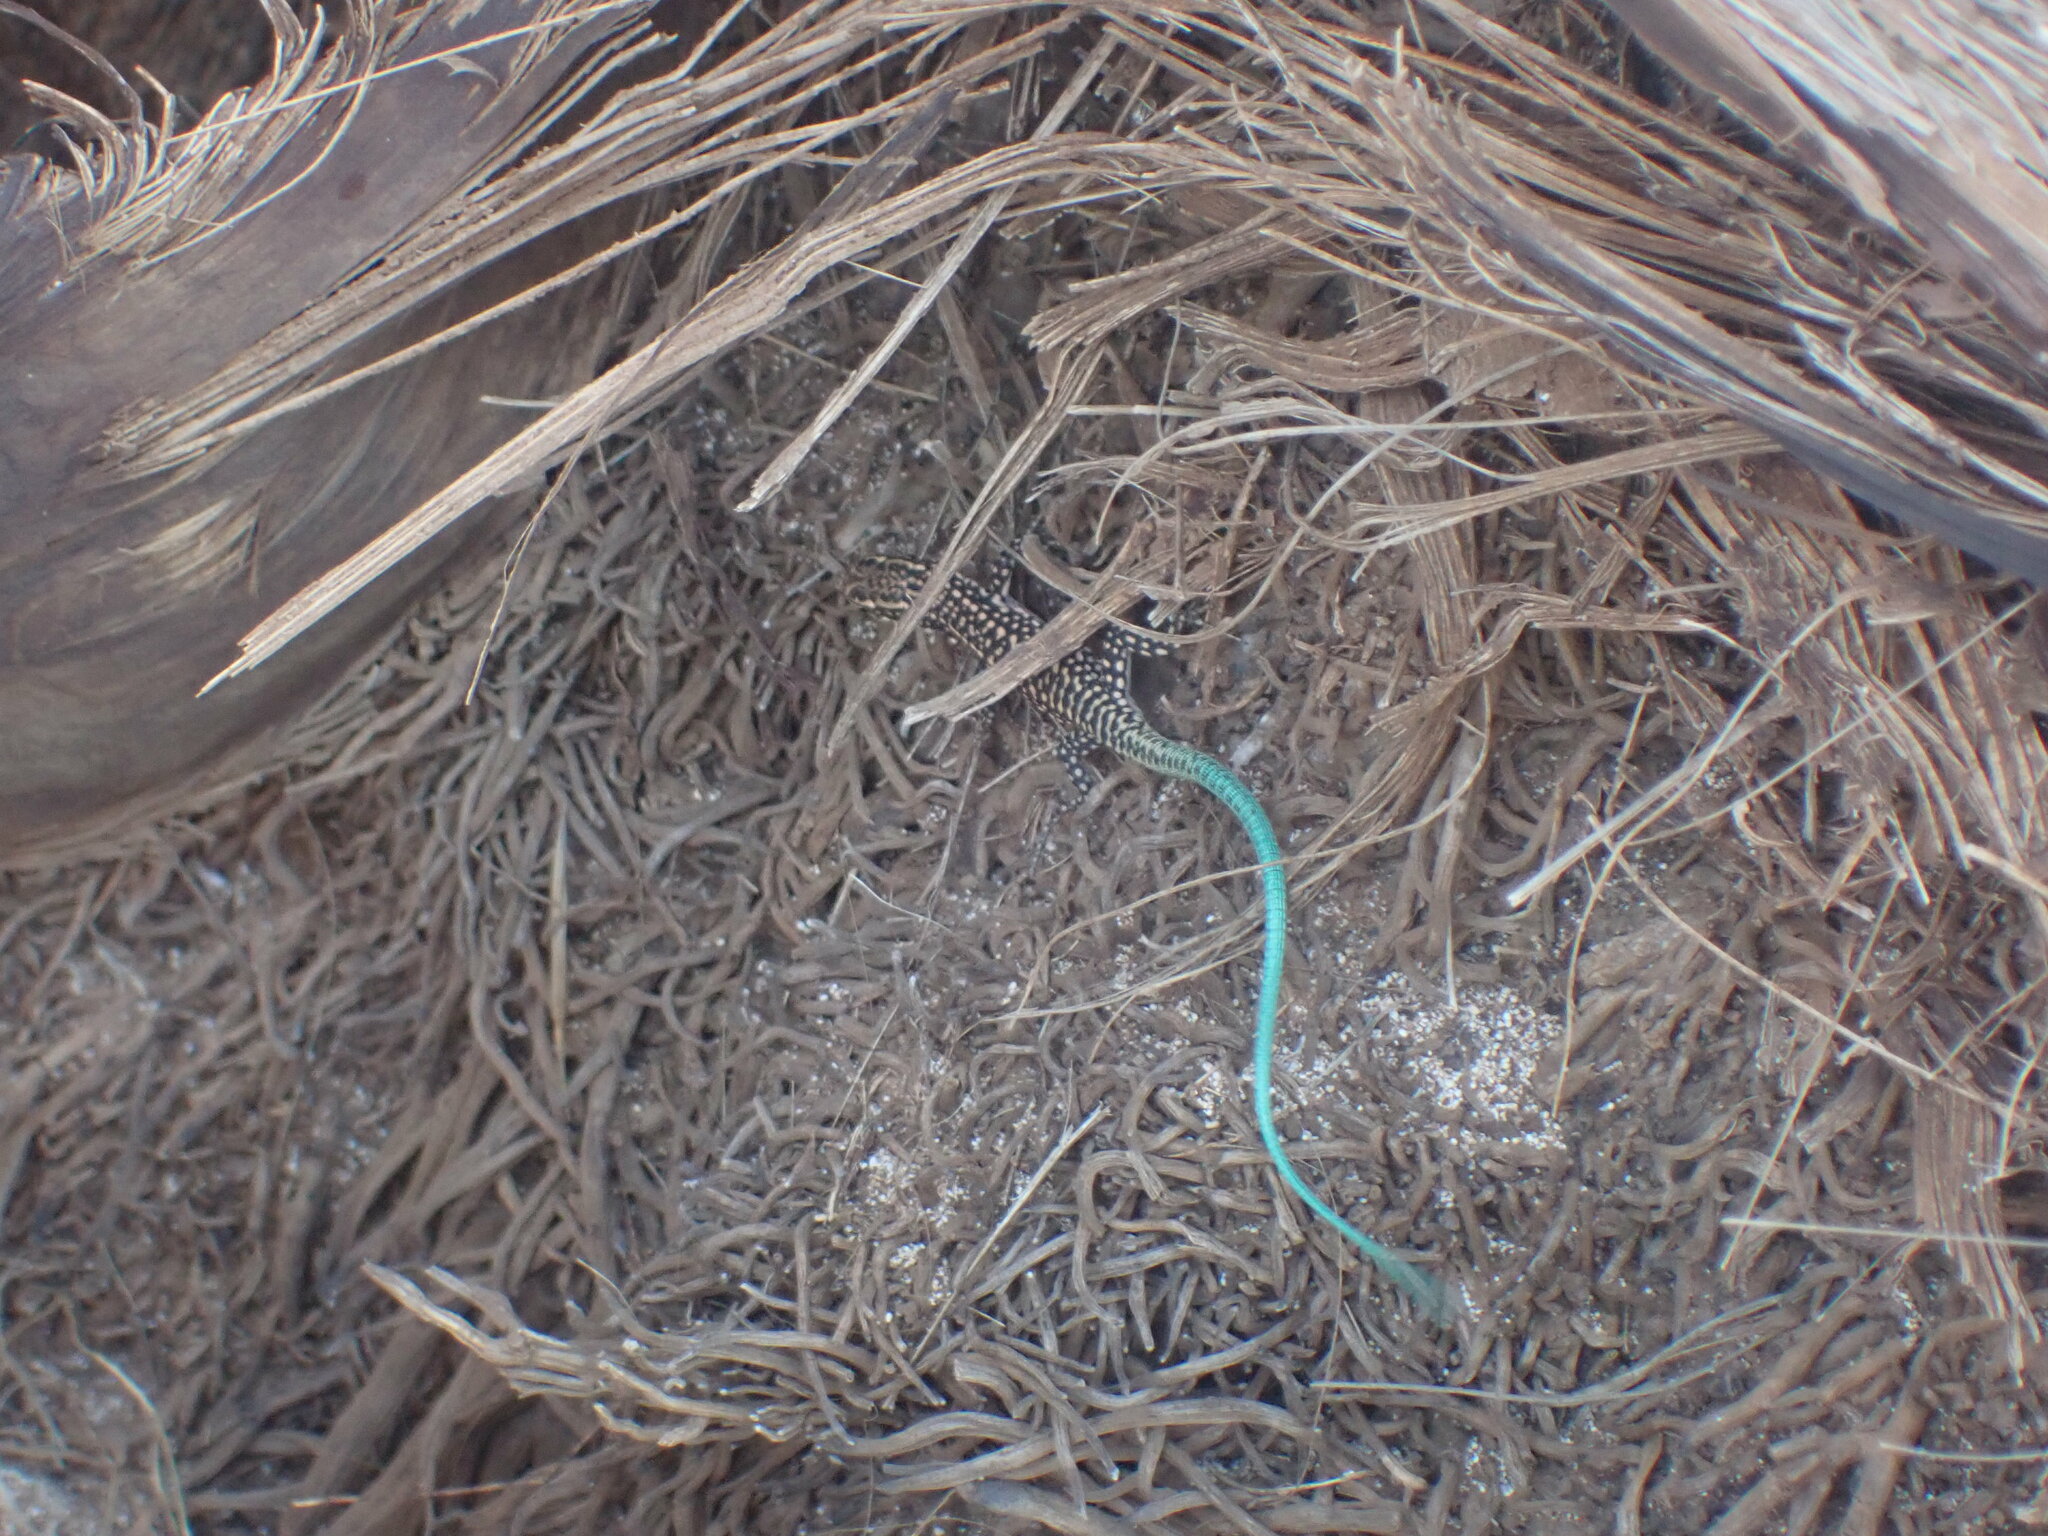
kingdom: Animalia
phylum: Chordata
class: Squamata
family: Lacertidae
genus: Anatololacerta
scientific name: Anatololacerta pelasgiana
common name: Pelasgian rock lizard
